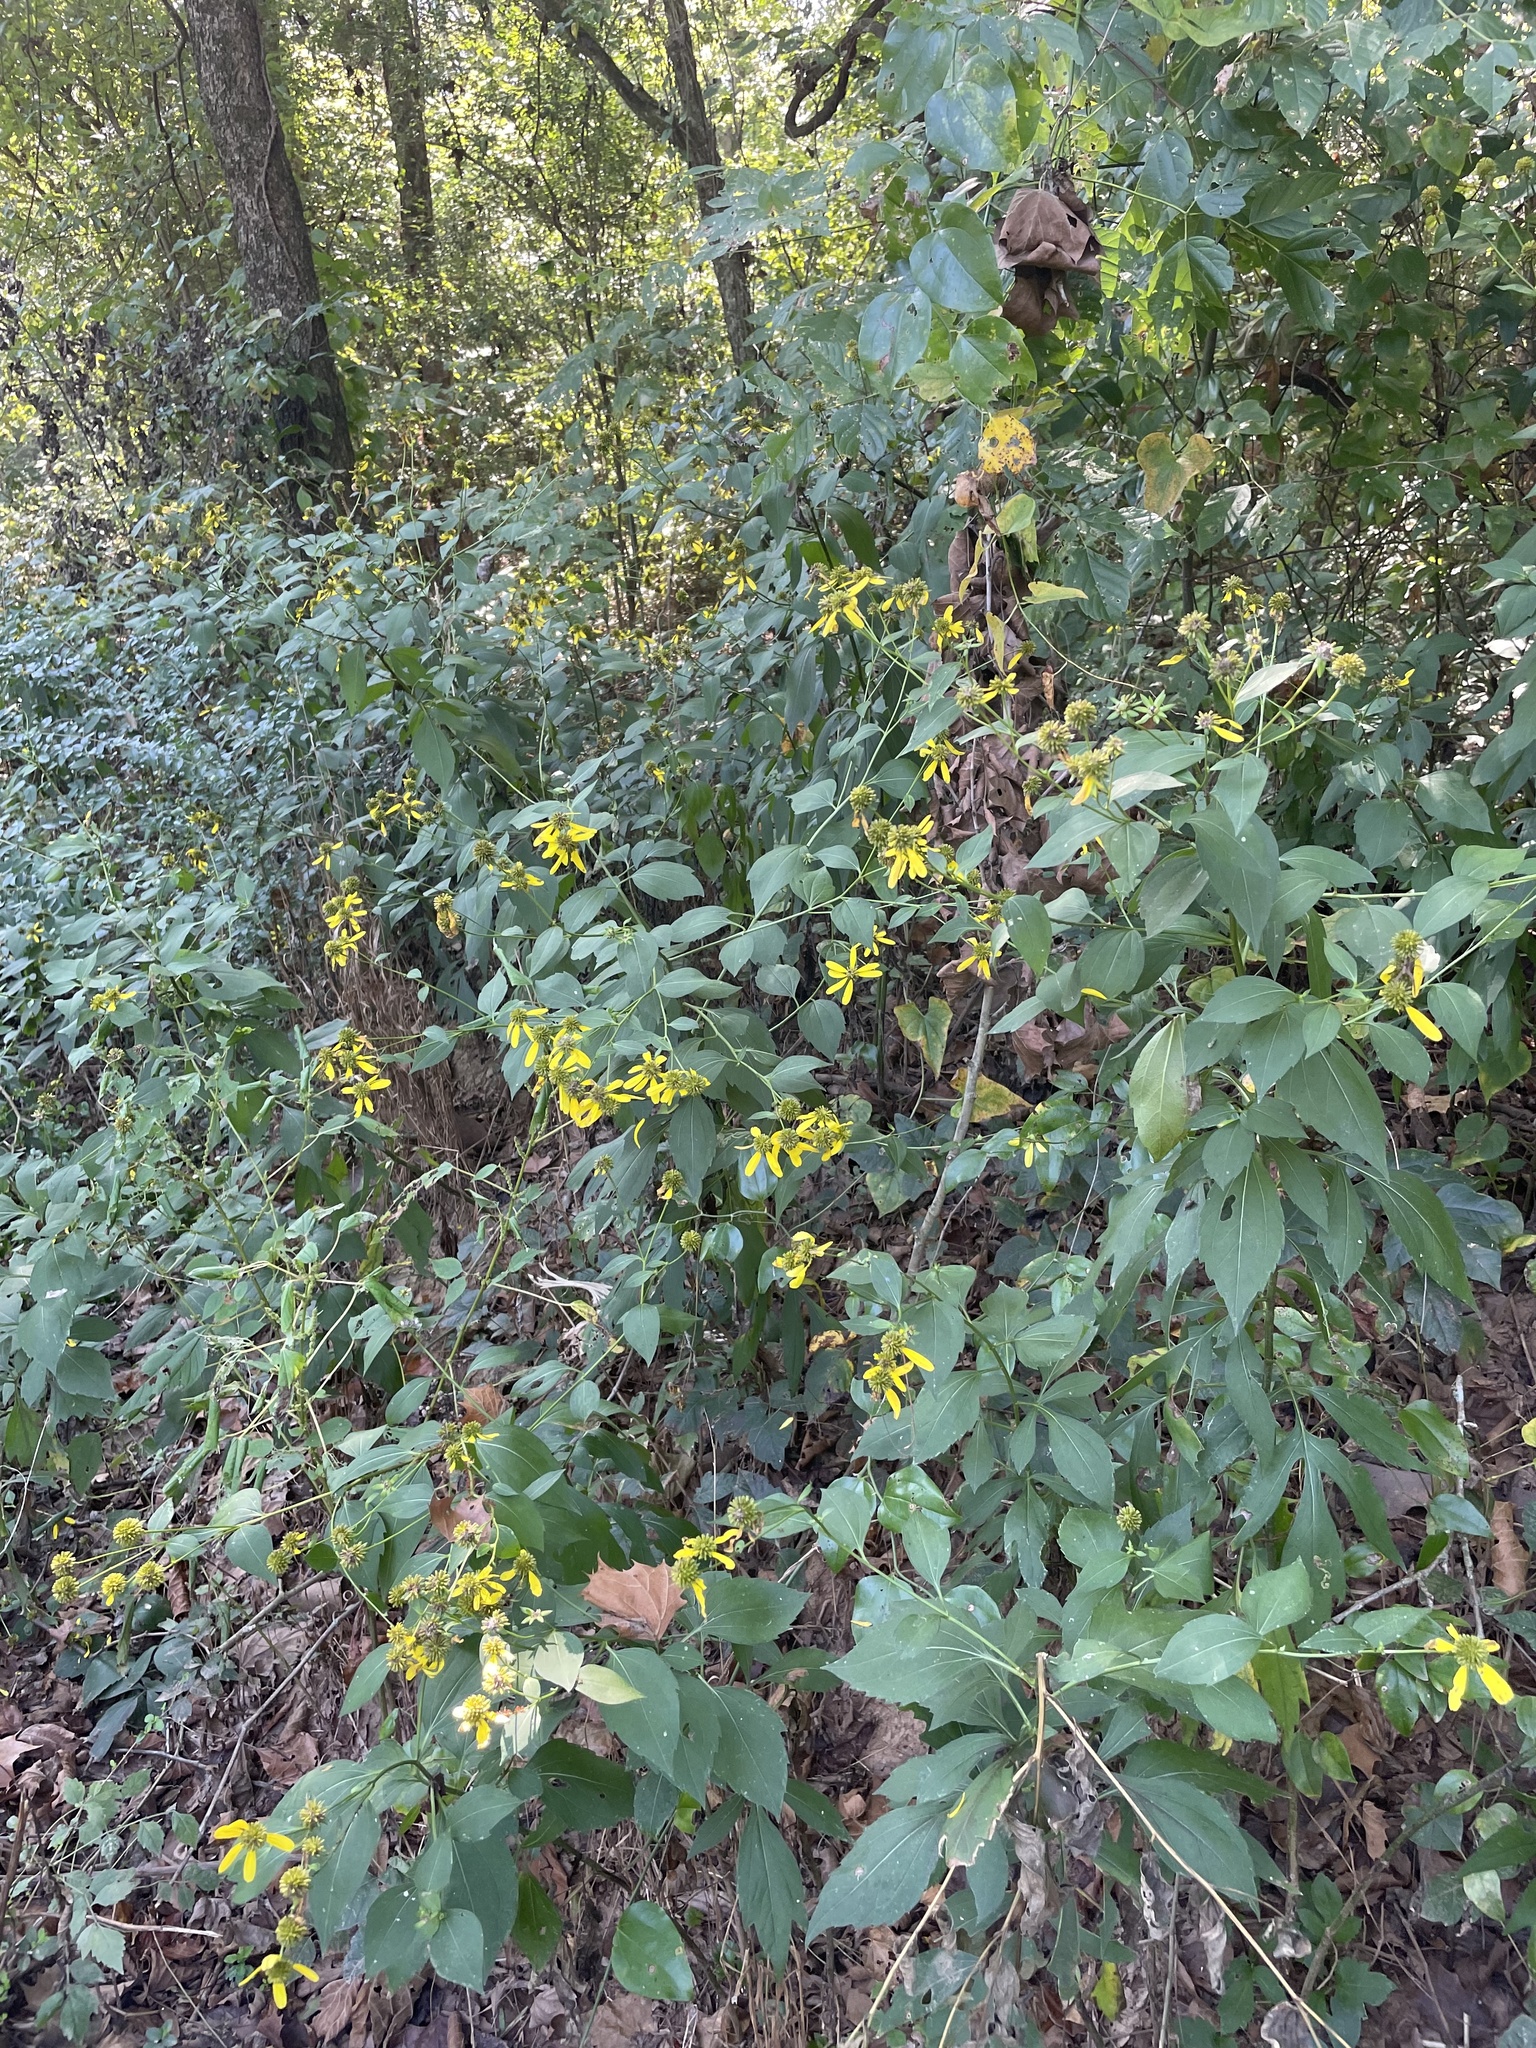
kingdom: Plantae
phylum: Tracheophyta
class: Magnoliopsida
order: Asterales
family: Asteraceae
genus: Rudbeckia
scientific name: Rudbeckia laciniata
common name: Coneflower
